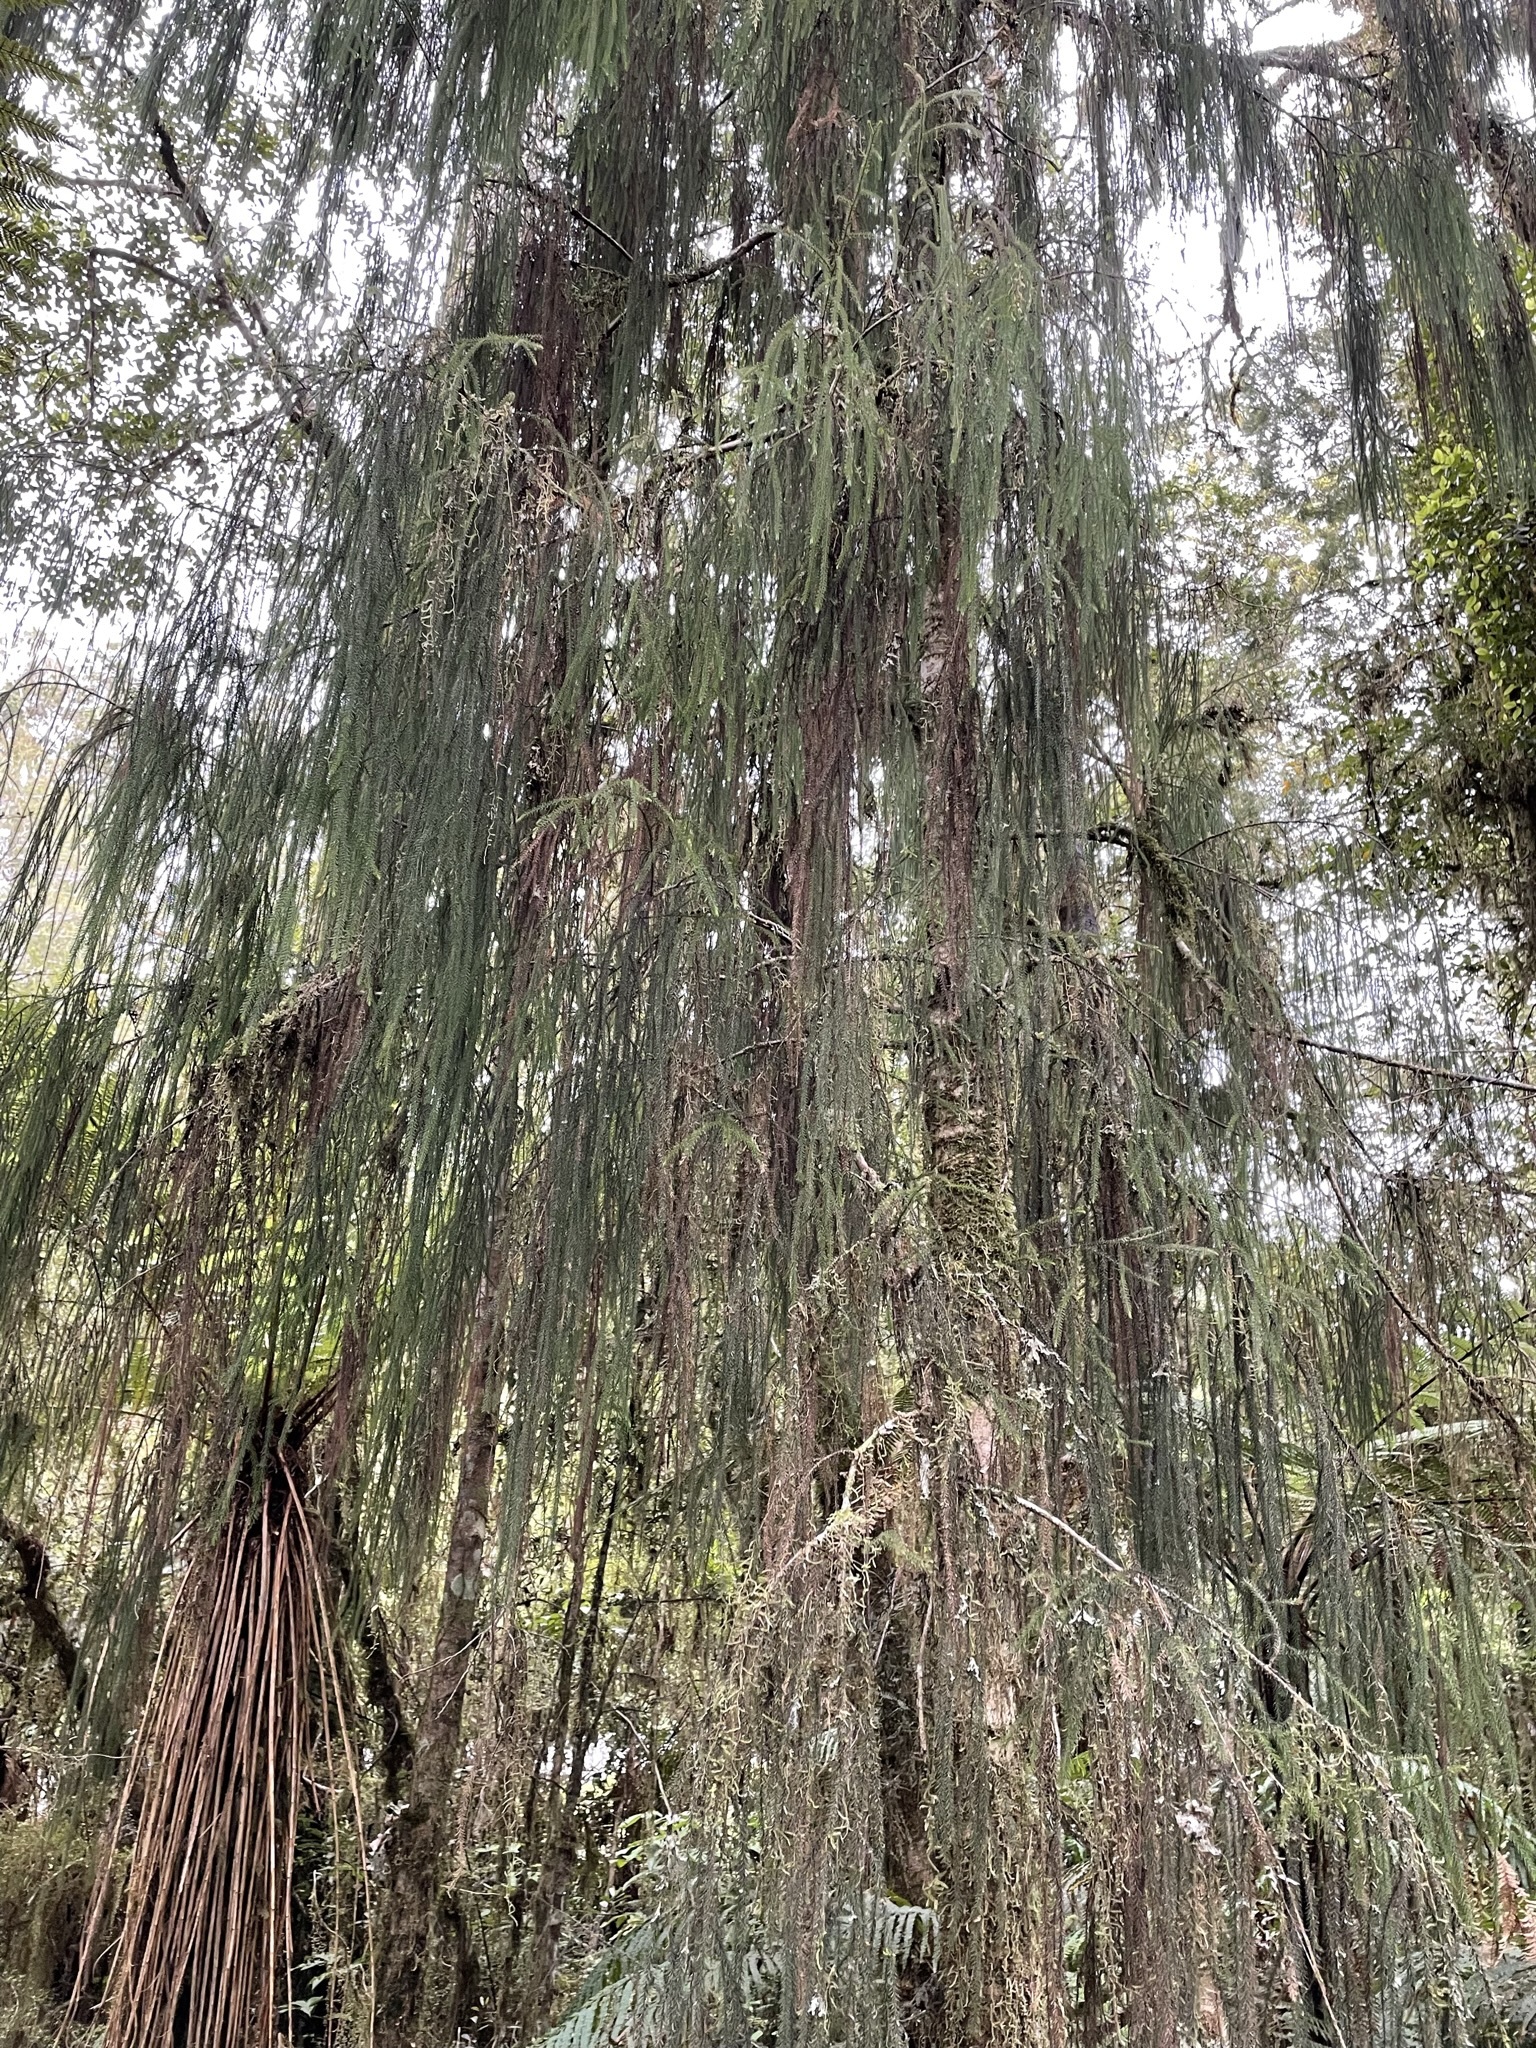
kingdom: Plantae
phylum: Tracheophyta
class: Pinopsida
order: Pinales
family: Podocarpaceae
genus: Dacrydium
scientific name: Dacrydium cupressinum
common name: Red pine
